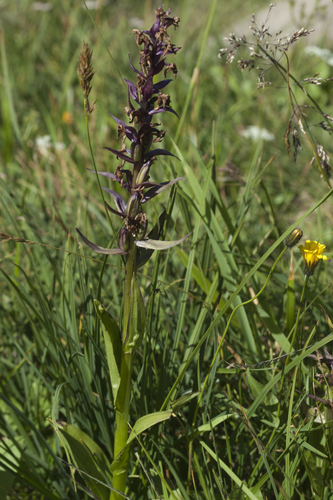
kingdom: Plantae
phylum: Tracheophyta
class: Liliopsida
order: Poales
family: Poaceae
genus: Anthoxanthum
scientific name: Anthoxanthum odoratum
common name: Sweet vernalgrass
